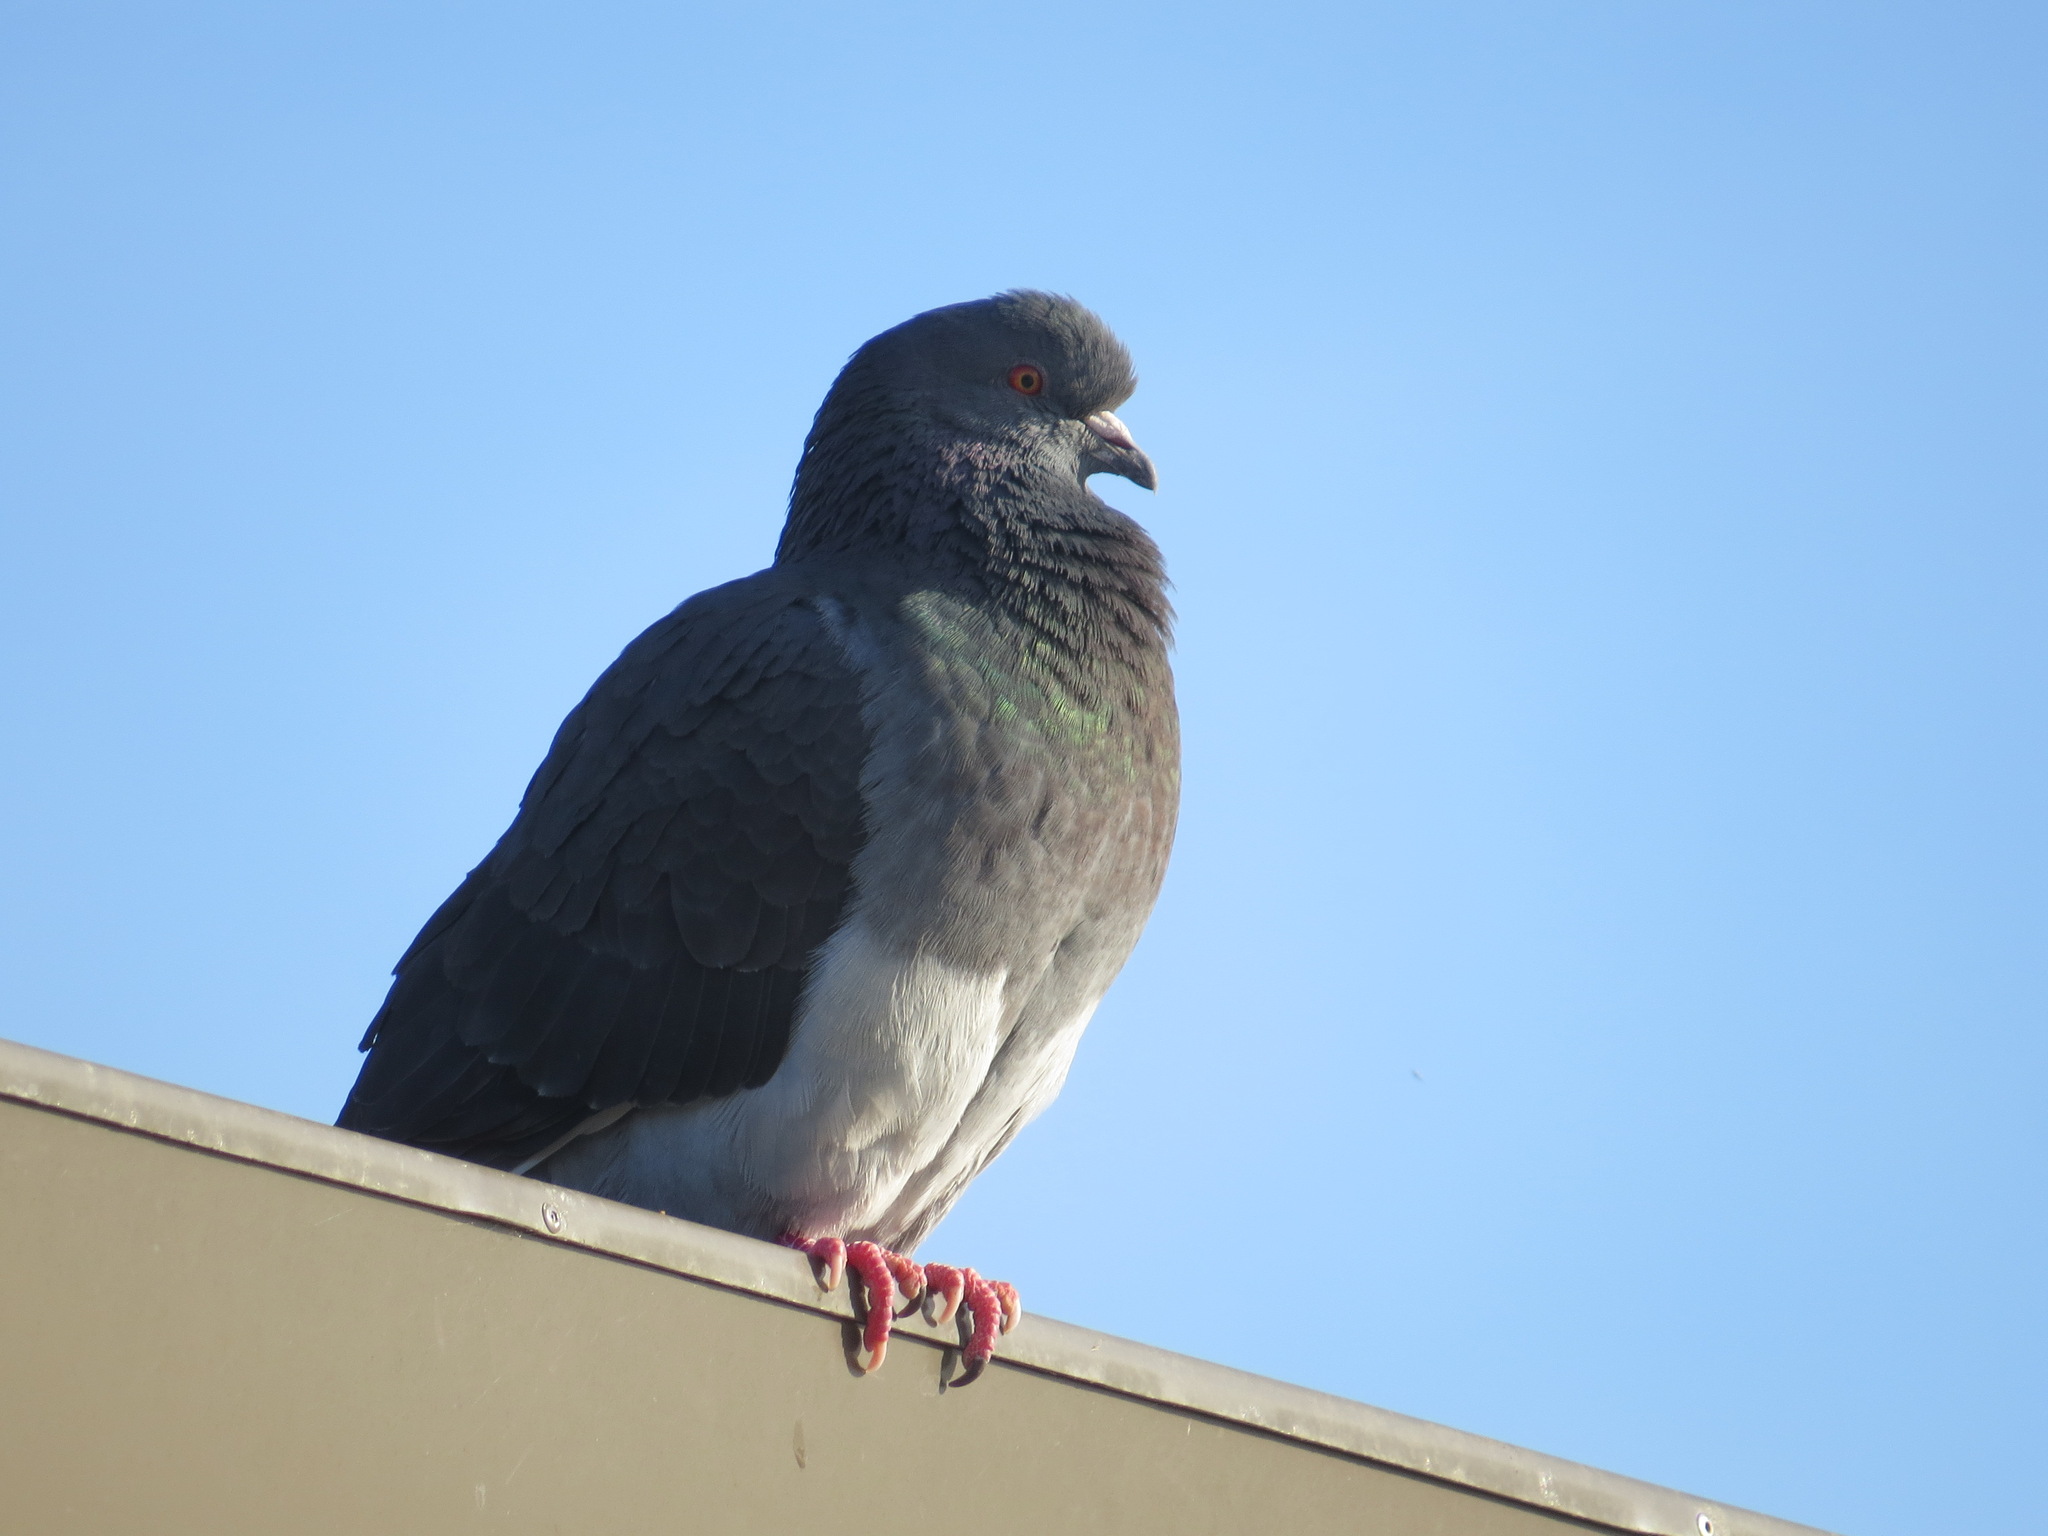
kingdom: Animalia
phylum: Chordata
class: Aves
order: Columbiformes
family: Columbidae
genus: Columba
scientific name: Columba livia
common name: Rock pigeon
